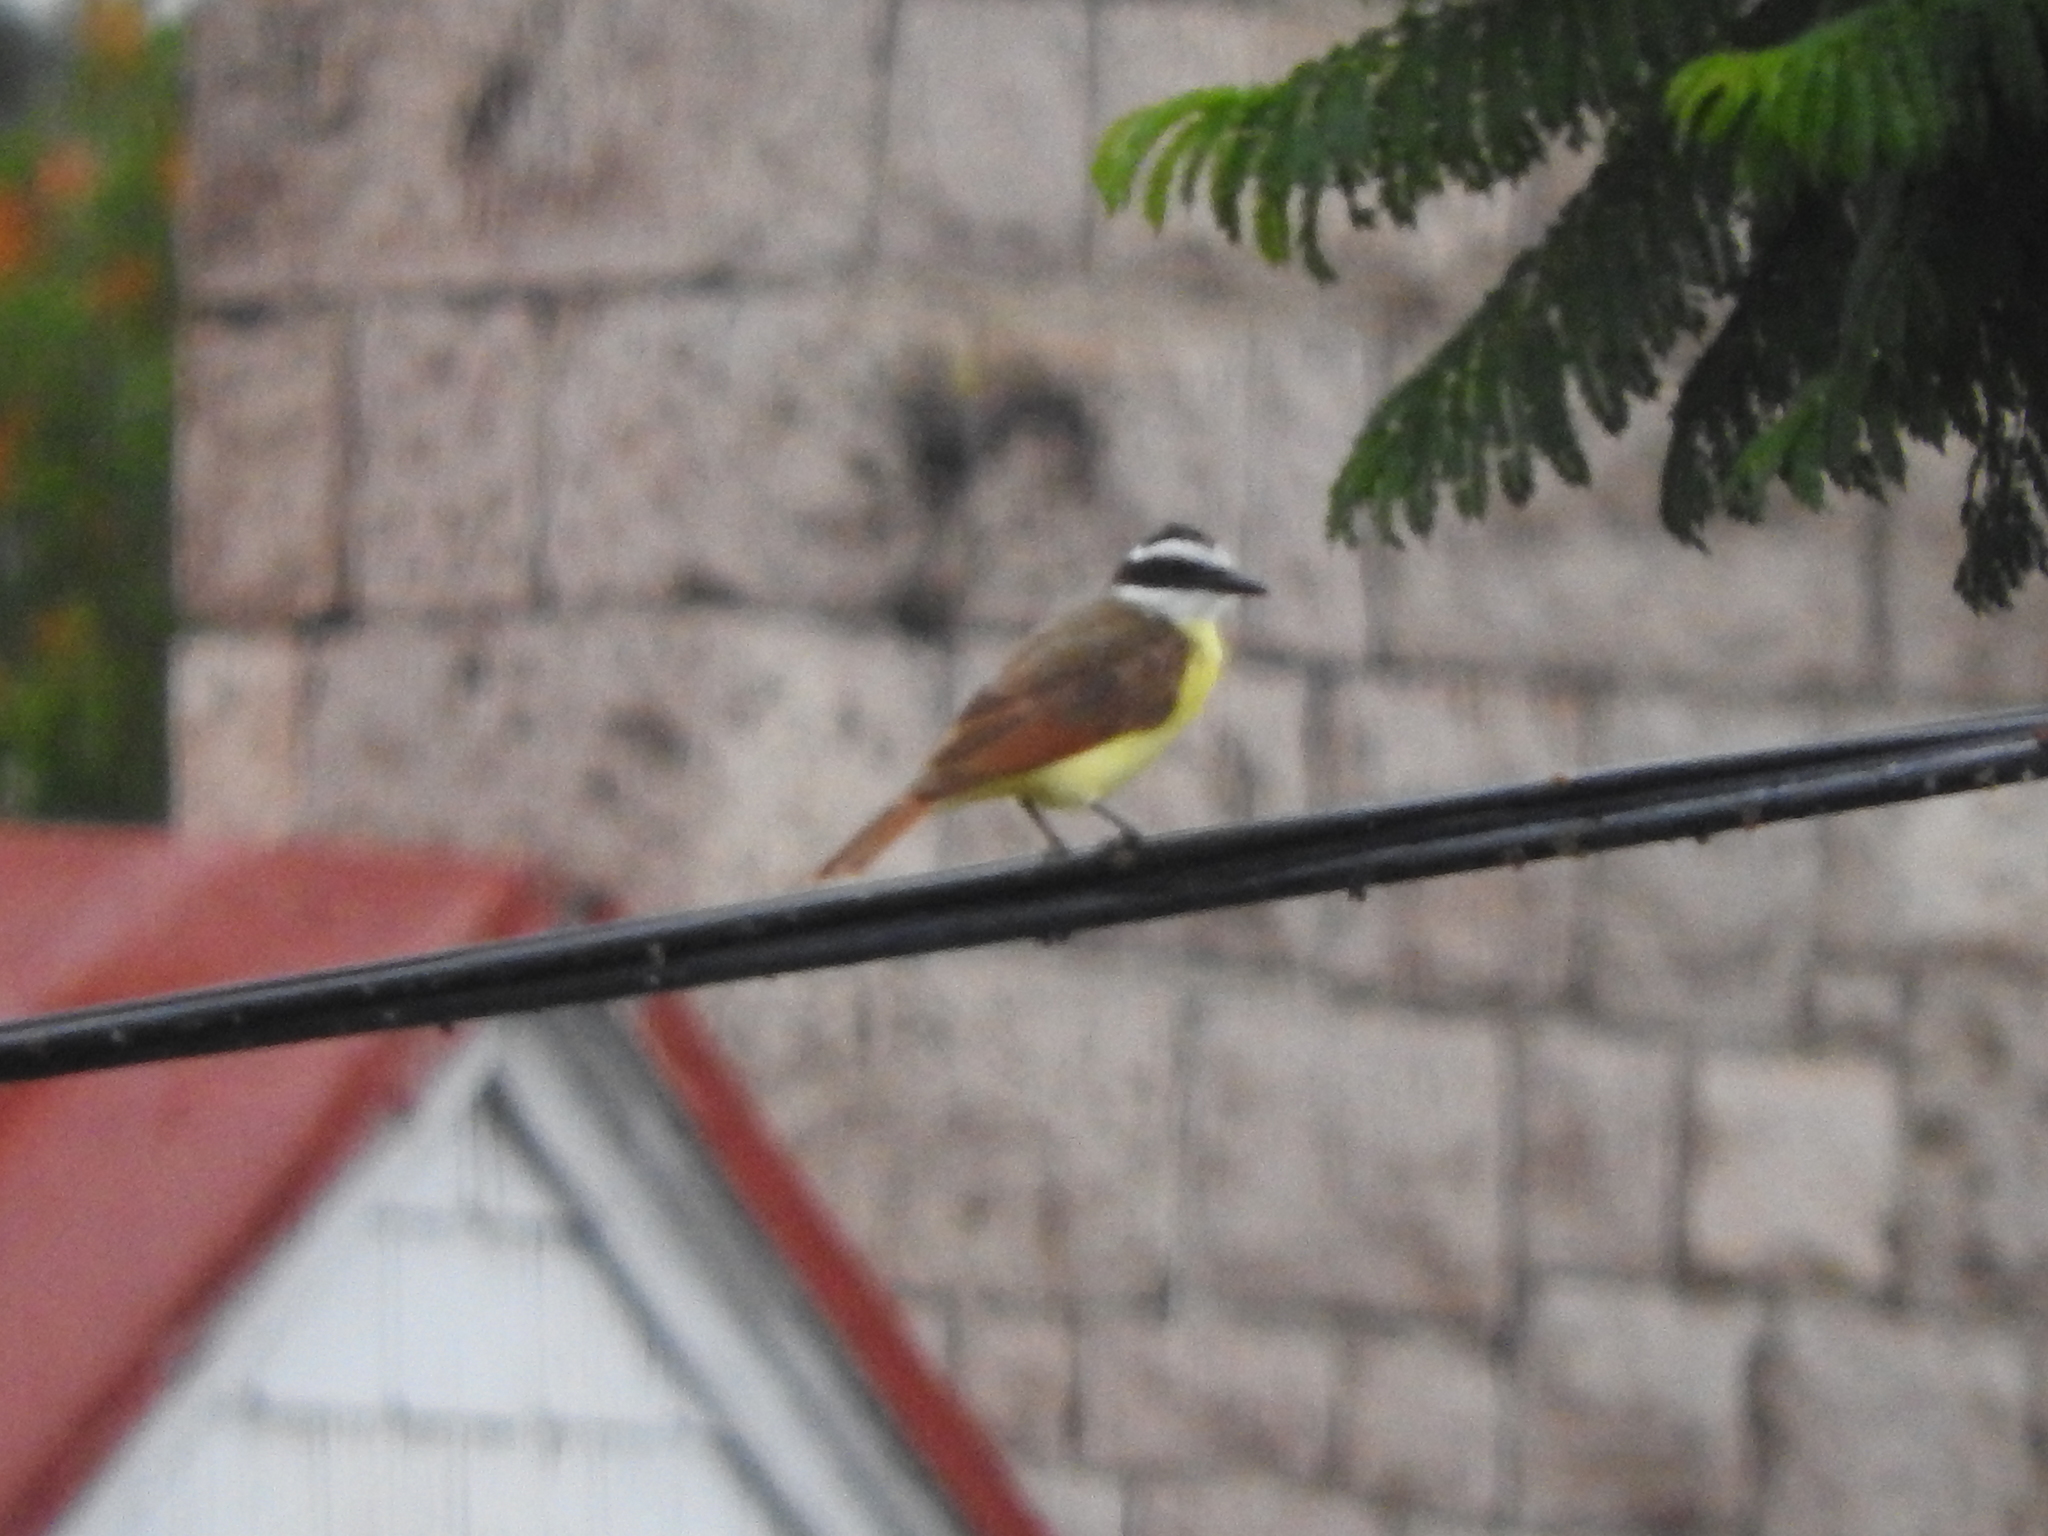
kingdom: Animalia
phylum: Chordata
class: Aves
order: Passeriformes
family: Tyrannidae
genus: Pitangus
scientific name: Pitangus sulphuratus
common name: Great kiskadee
